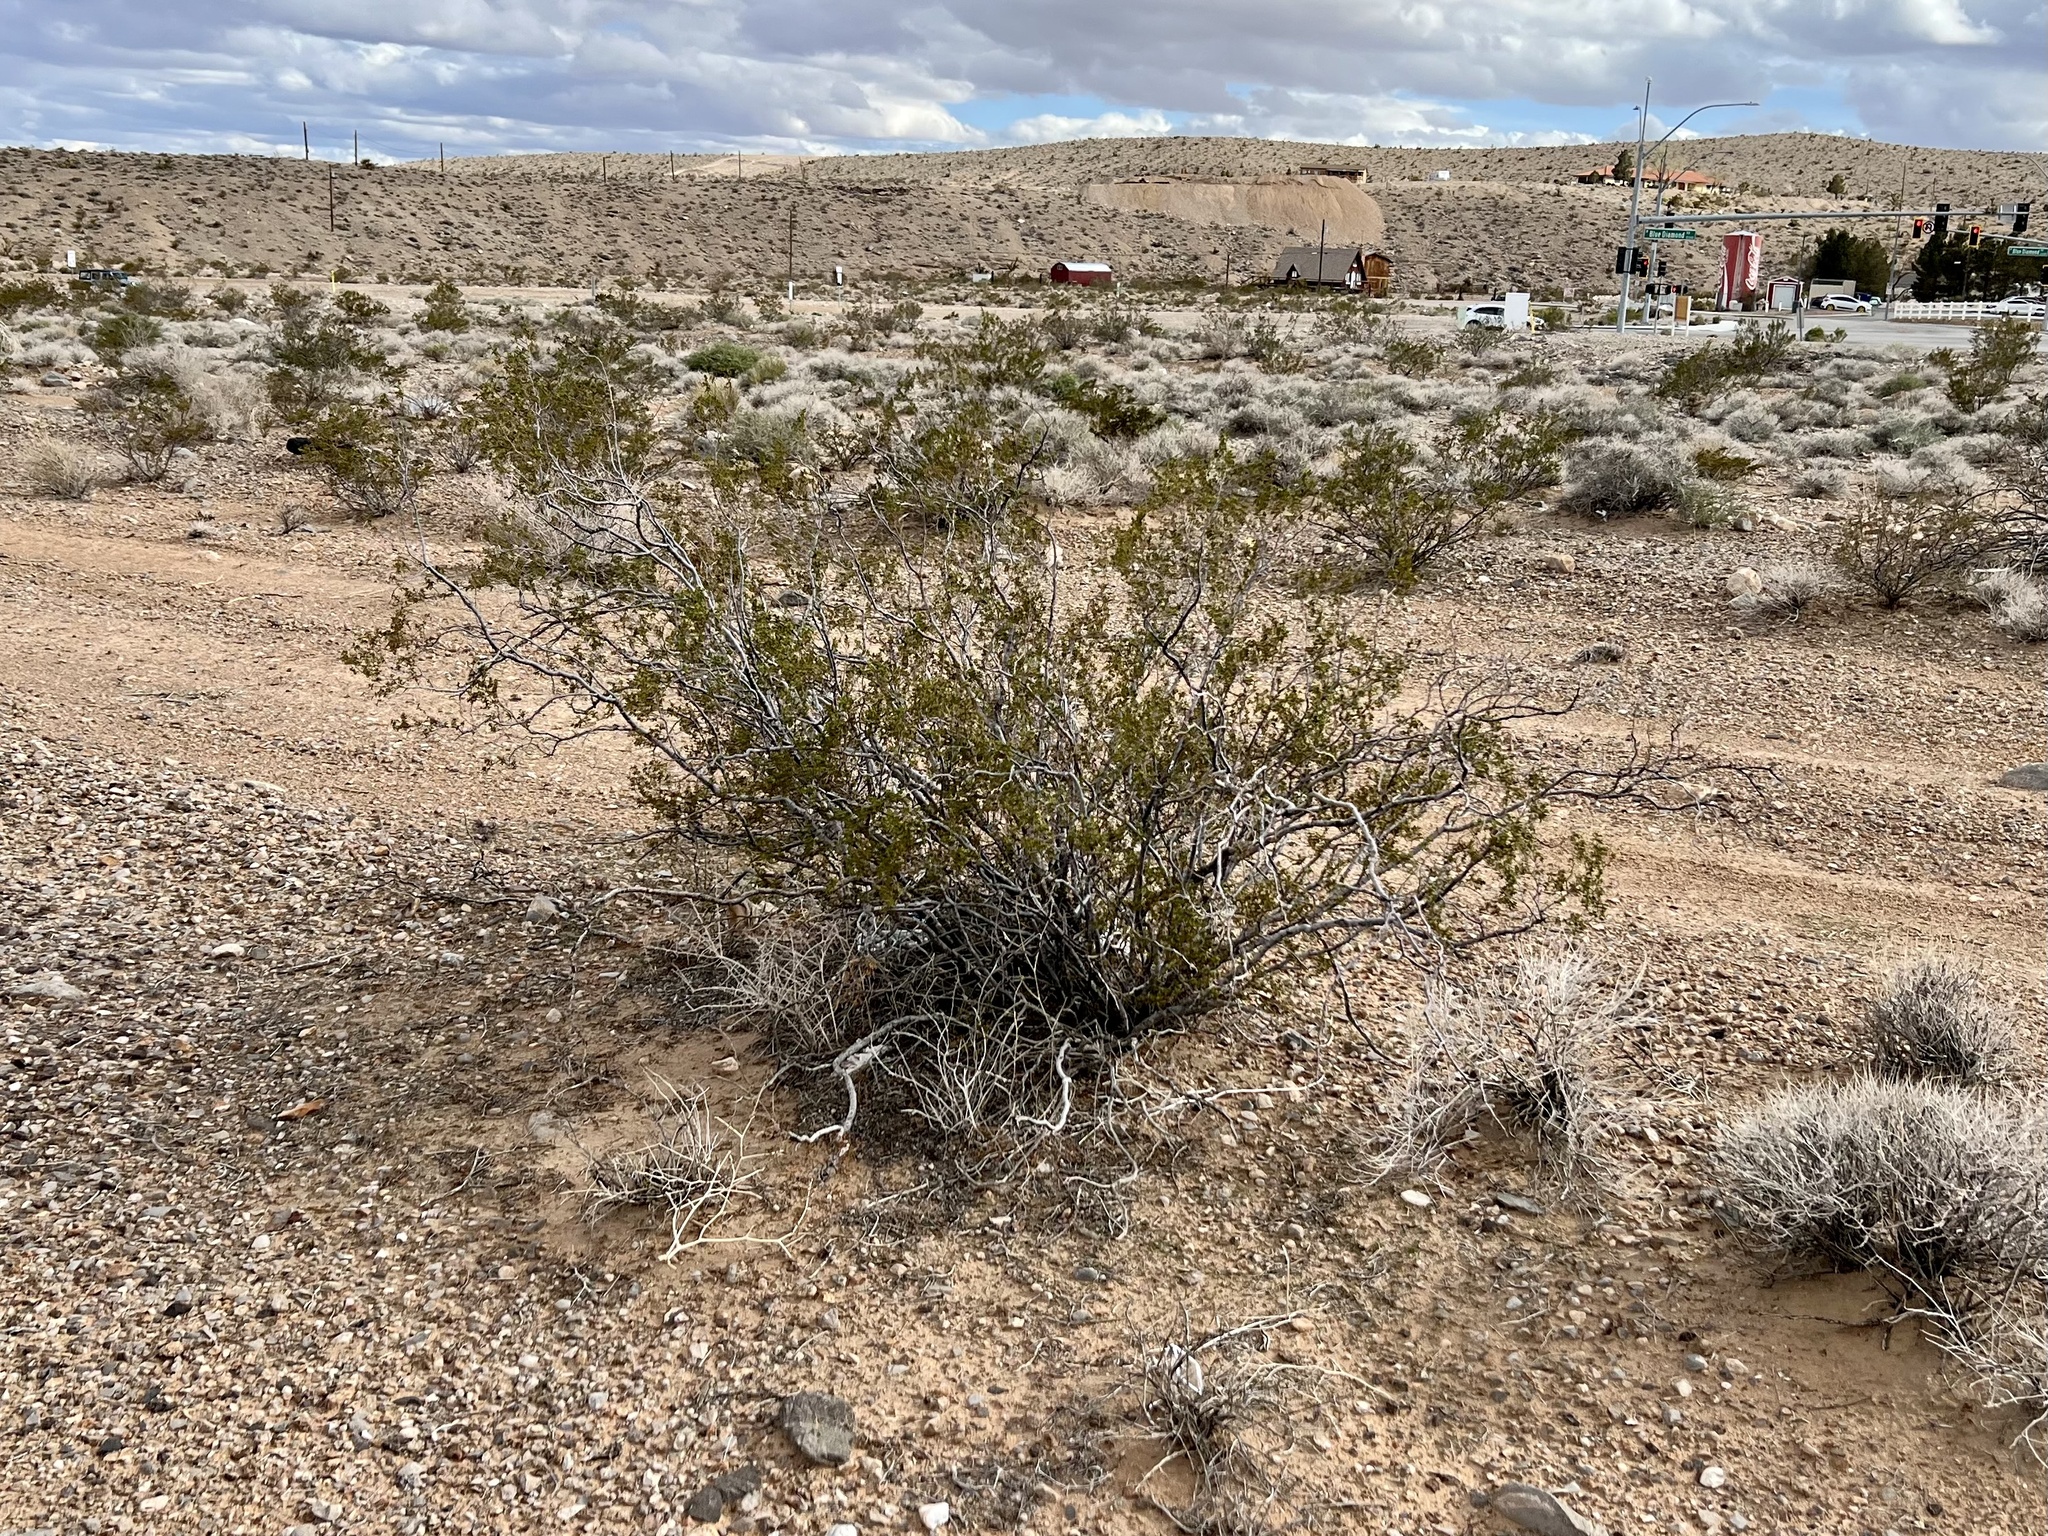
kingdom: Plantae
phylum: Tracheophyta
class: Magnoliopsida
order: Zygophyllales
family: Zygophyllaceae
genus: Larrea
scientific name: Larrea tridentata
